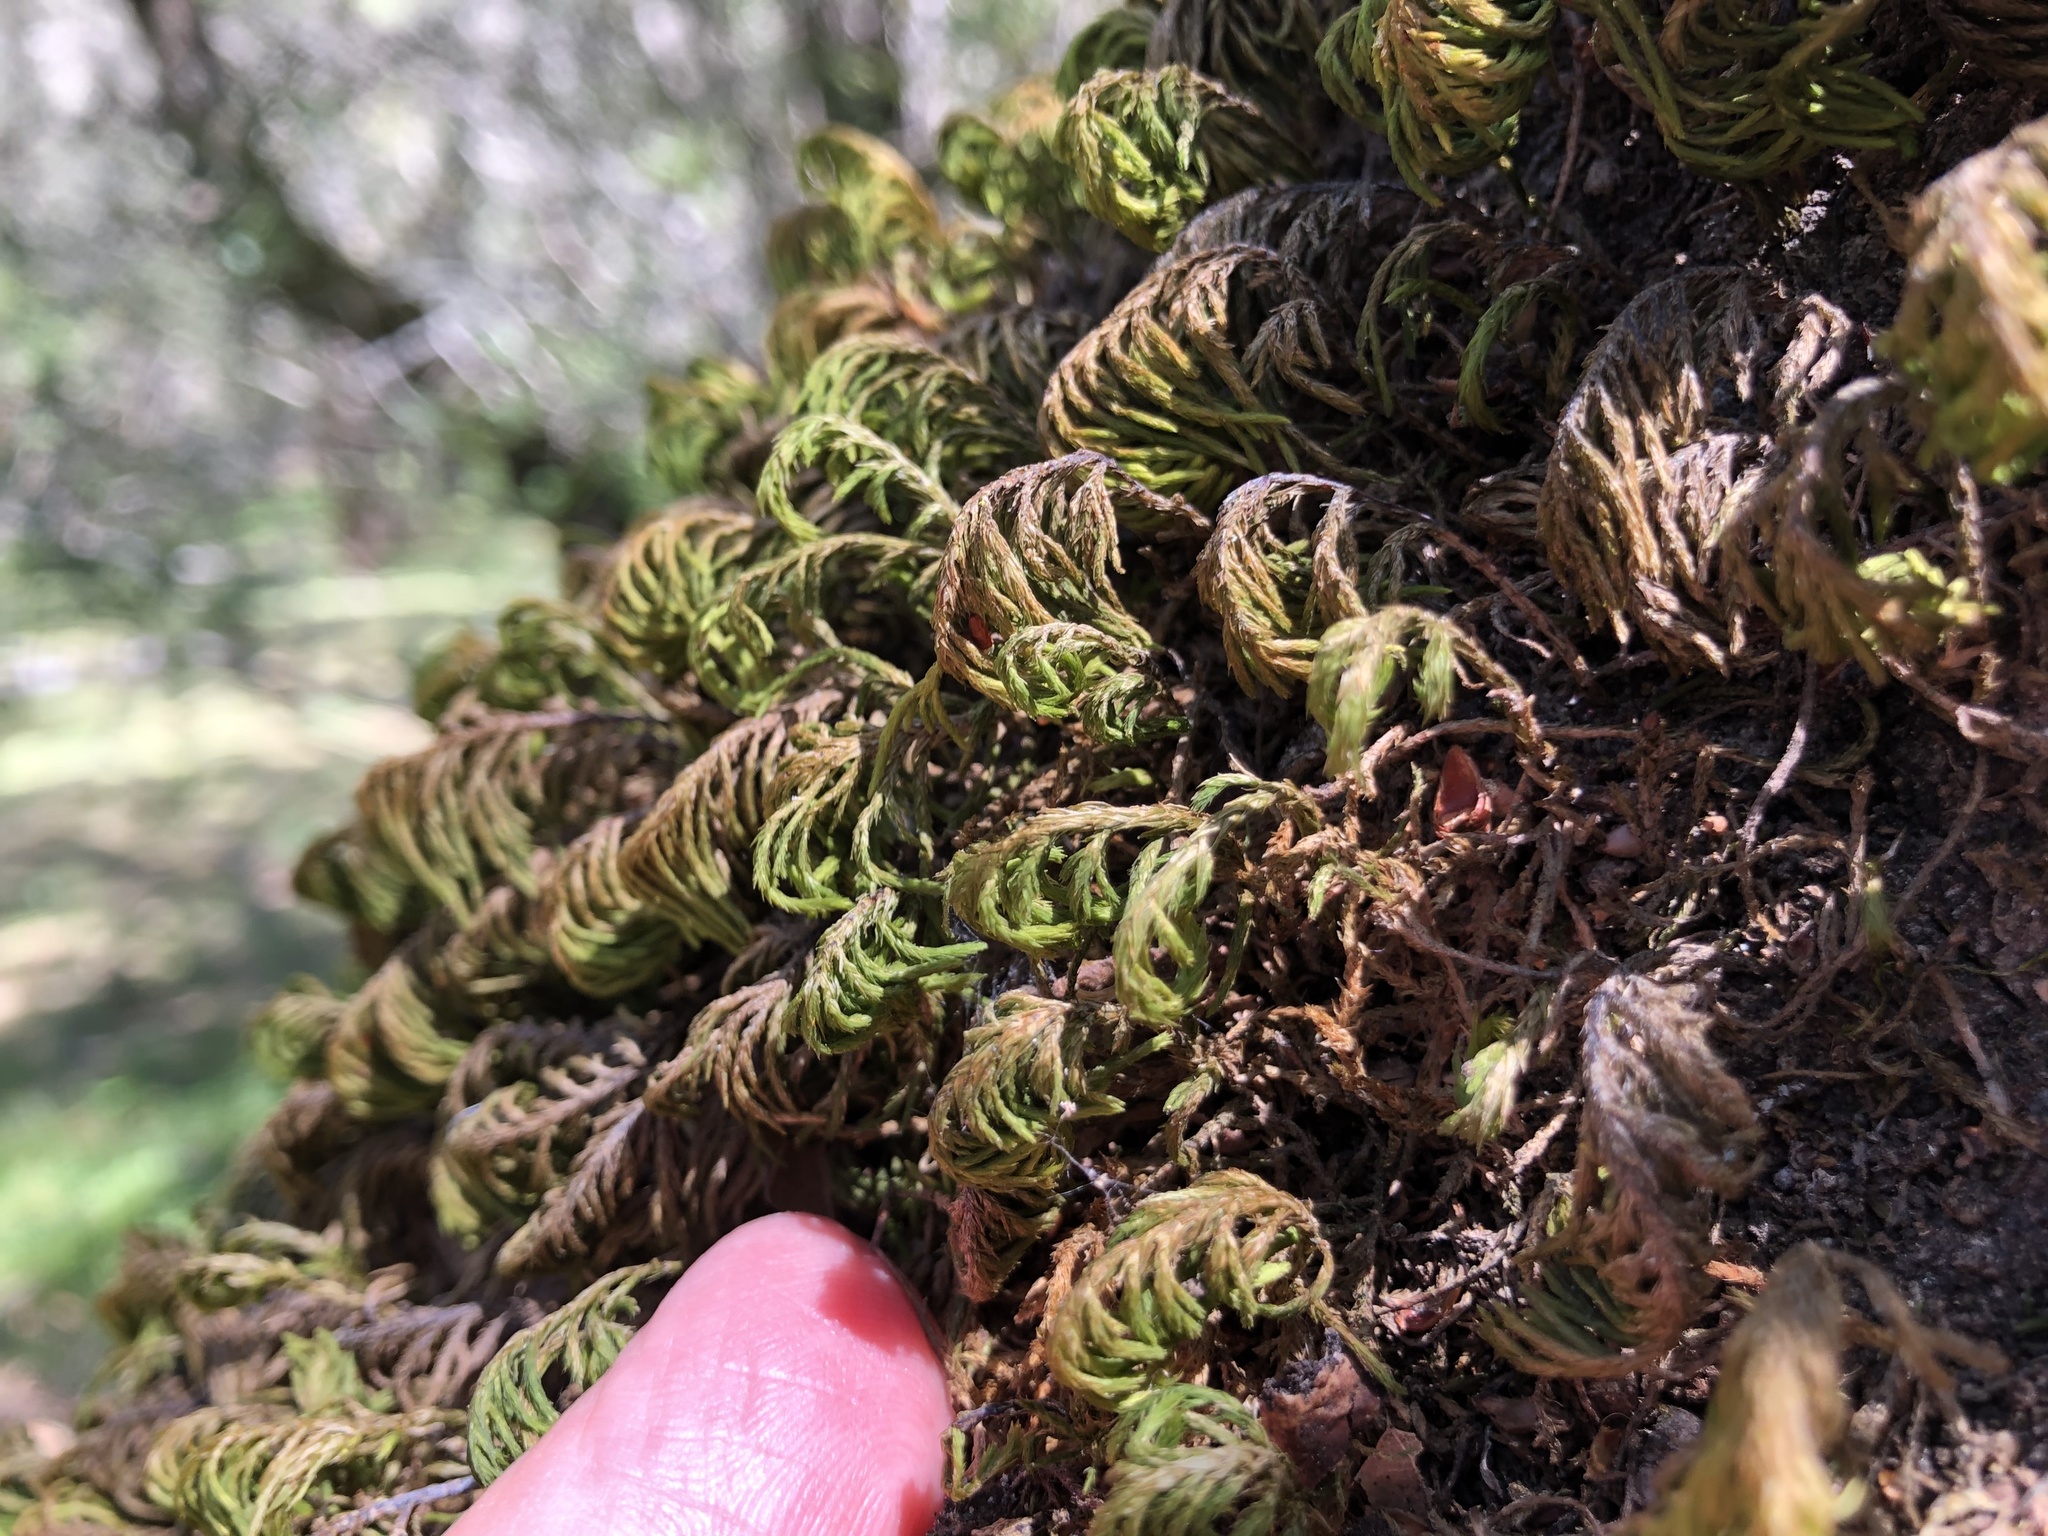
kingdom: Plantae
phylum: Bryophyta
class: Bryopsida
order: Hypnales
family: Cryphaeaceae
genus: Dendroalsia
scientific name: Dendroalsia abietina
